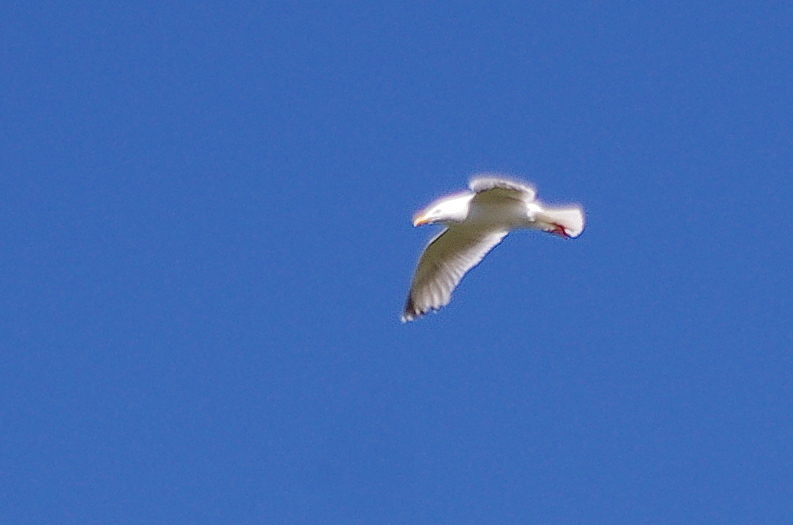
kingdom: Animalia
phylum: Chordata
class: Aves
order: Charadriiformes
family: Laridae
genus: Larus
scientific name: Larus argentatus
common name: Herring gull
